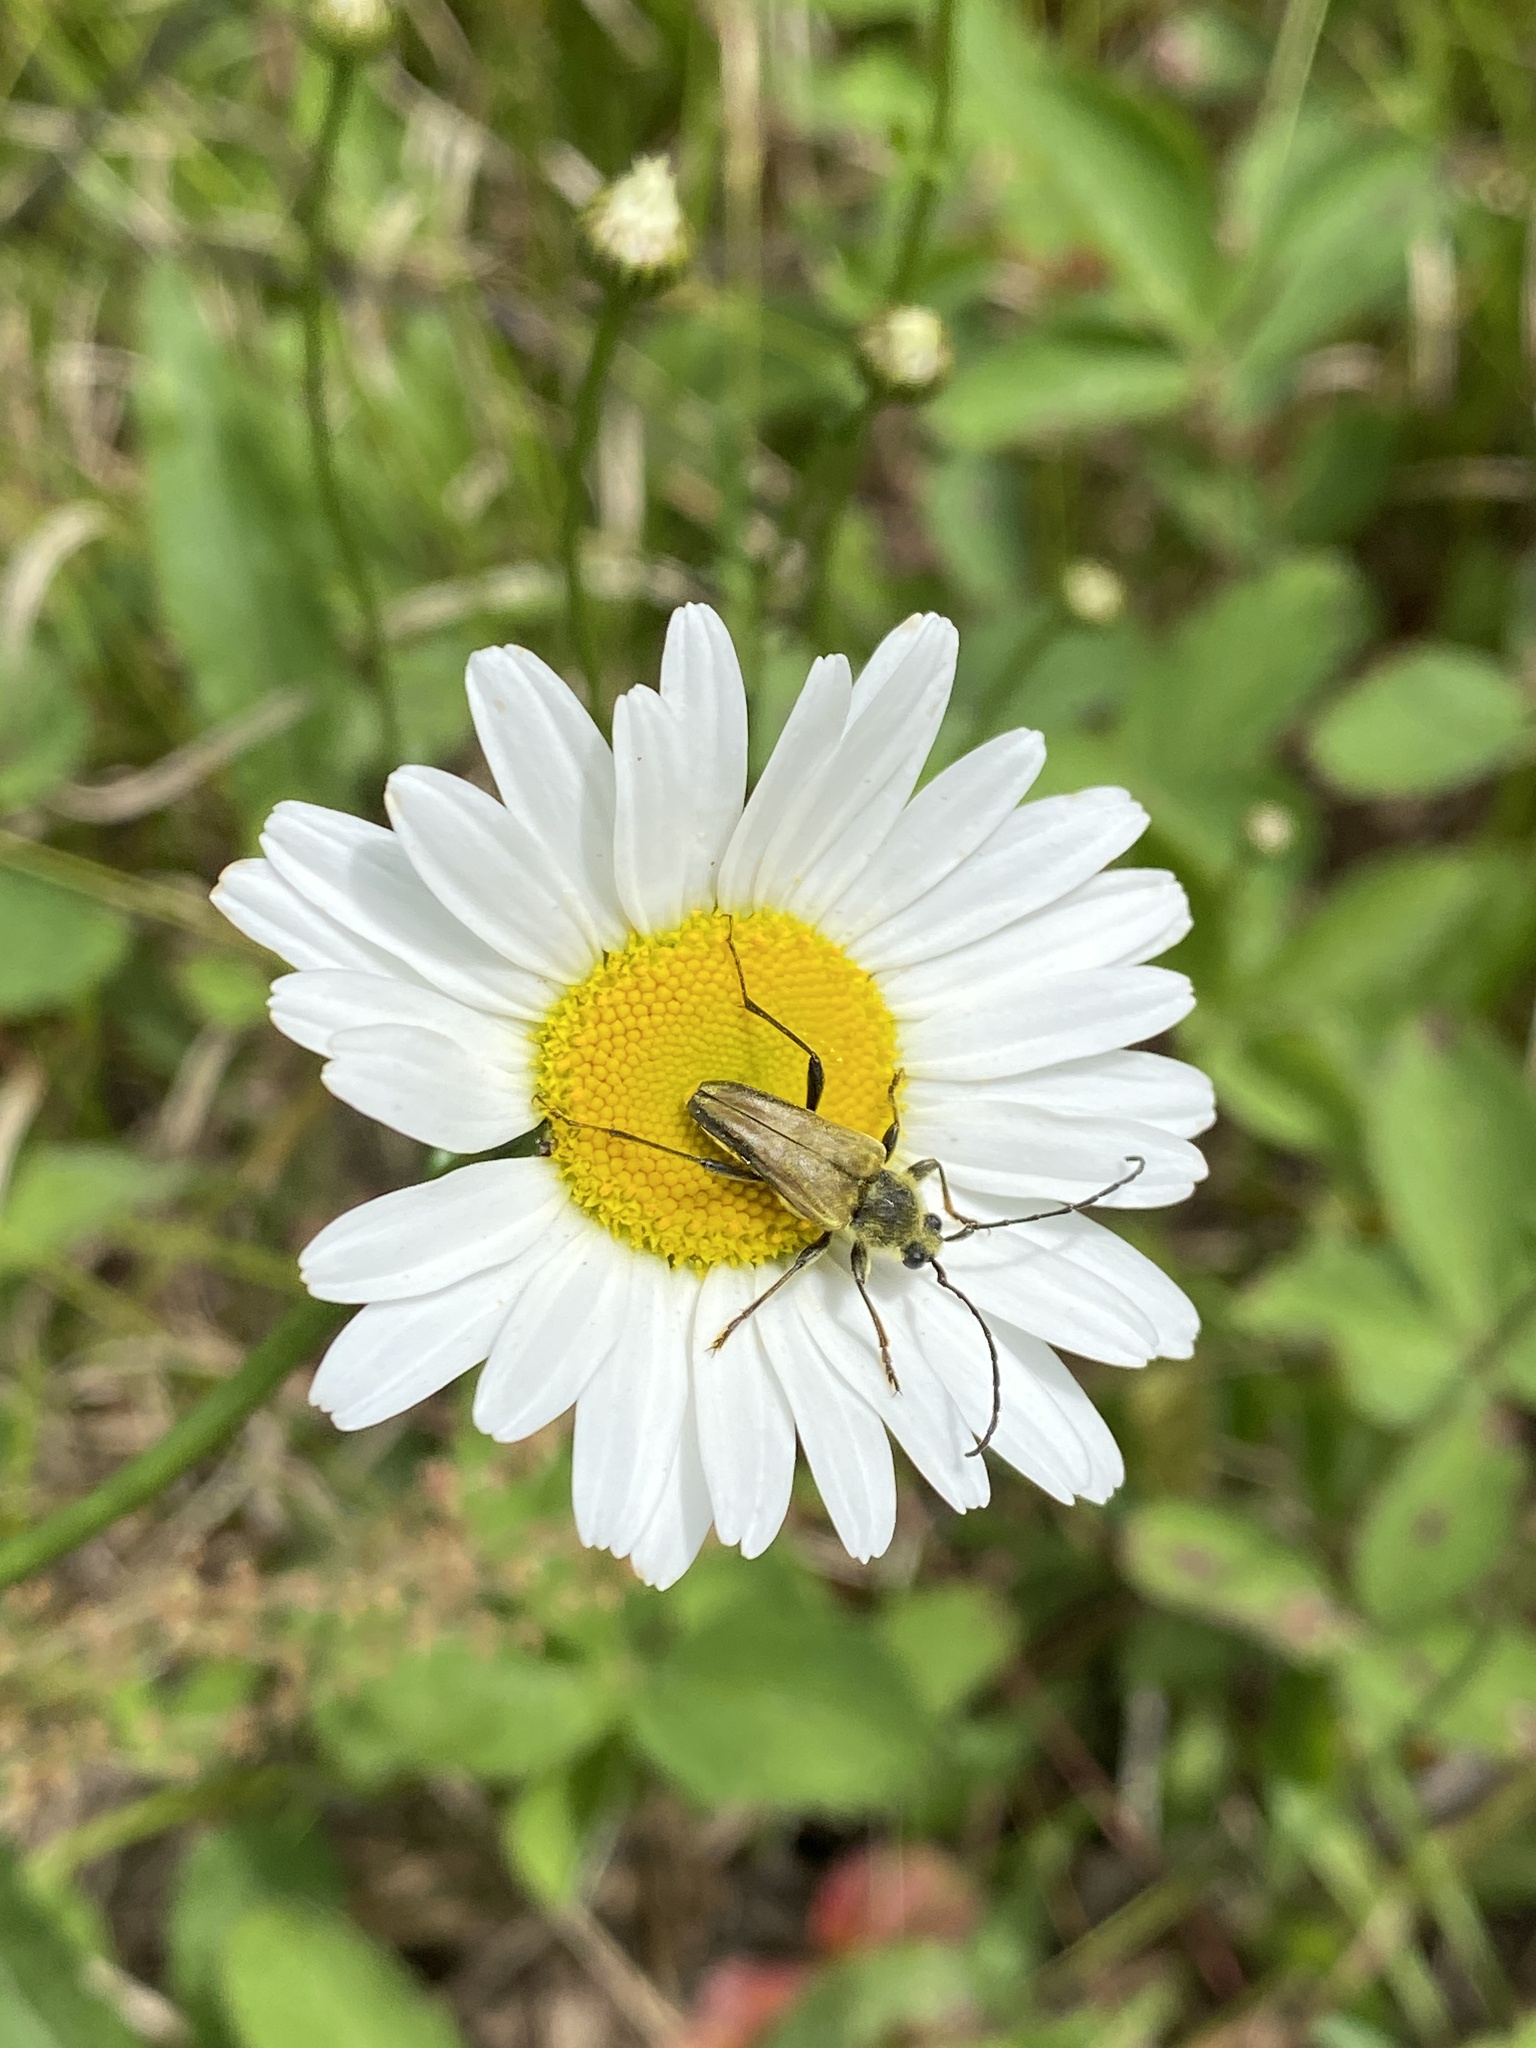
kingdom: Animalia
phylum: Arthropoda
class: Insecta
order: Coleoptera
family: Cerambycidae
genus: Cosmosalia
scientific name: Cosmosalia chrysocoma
